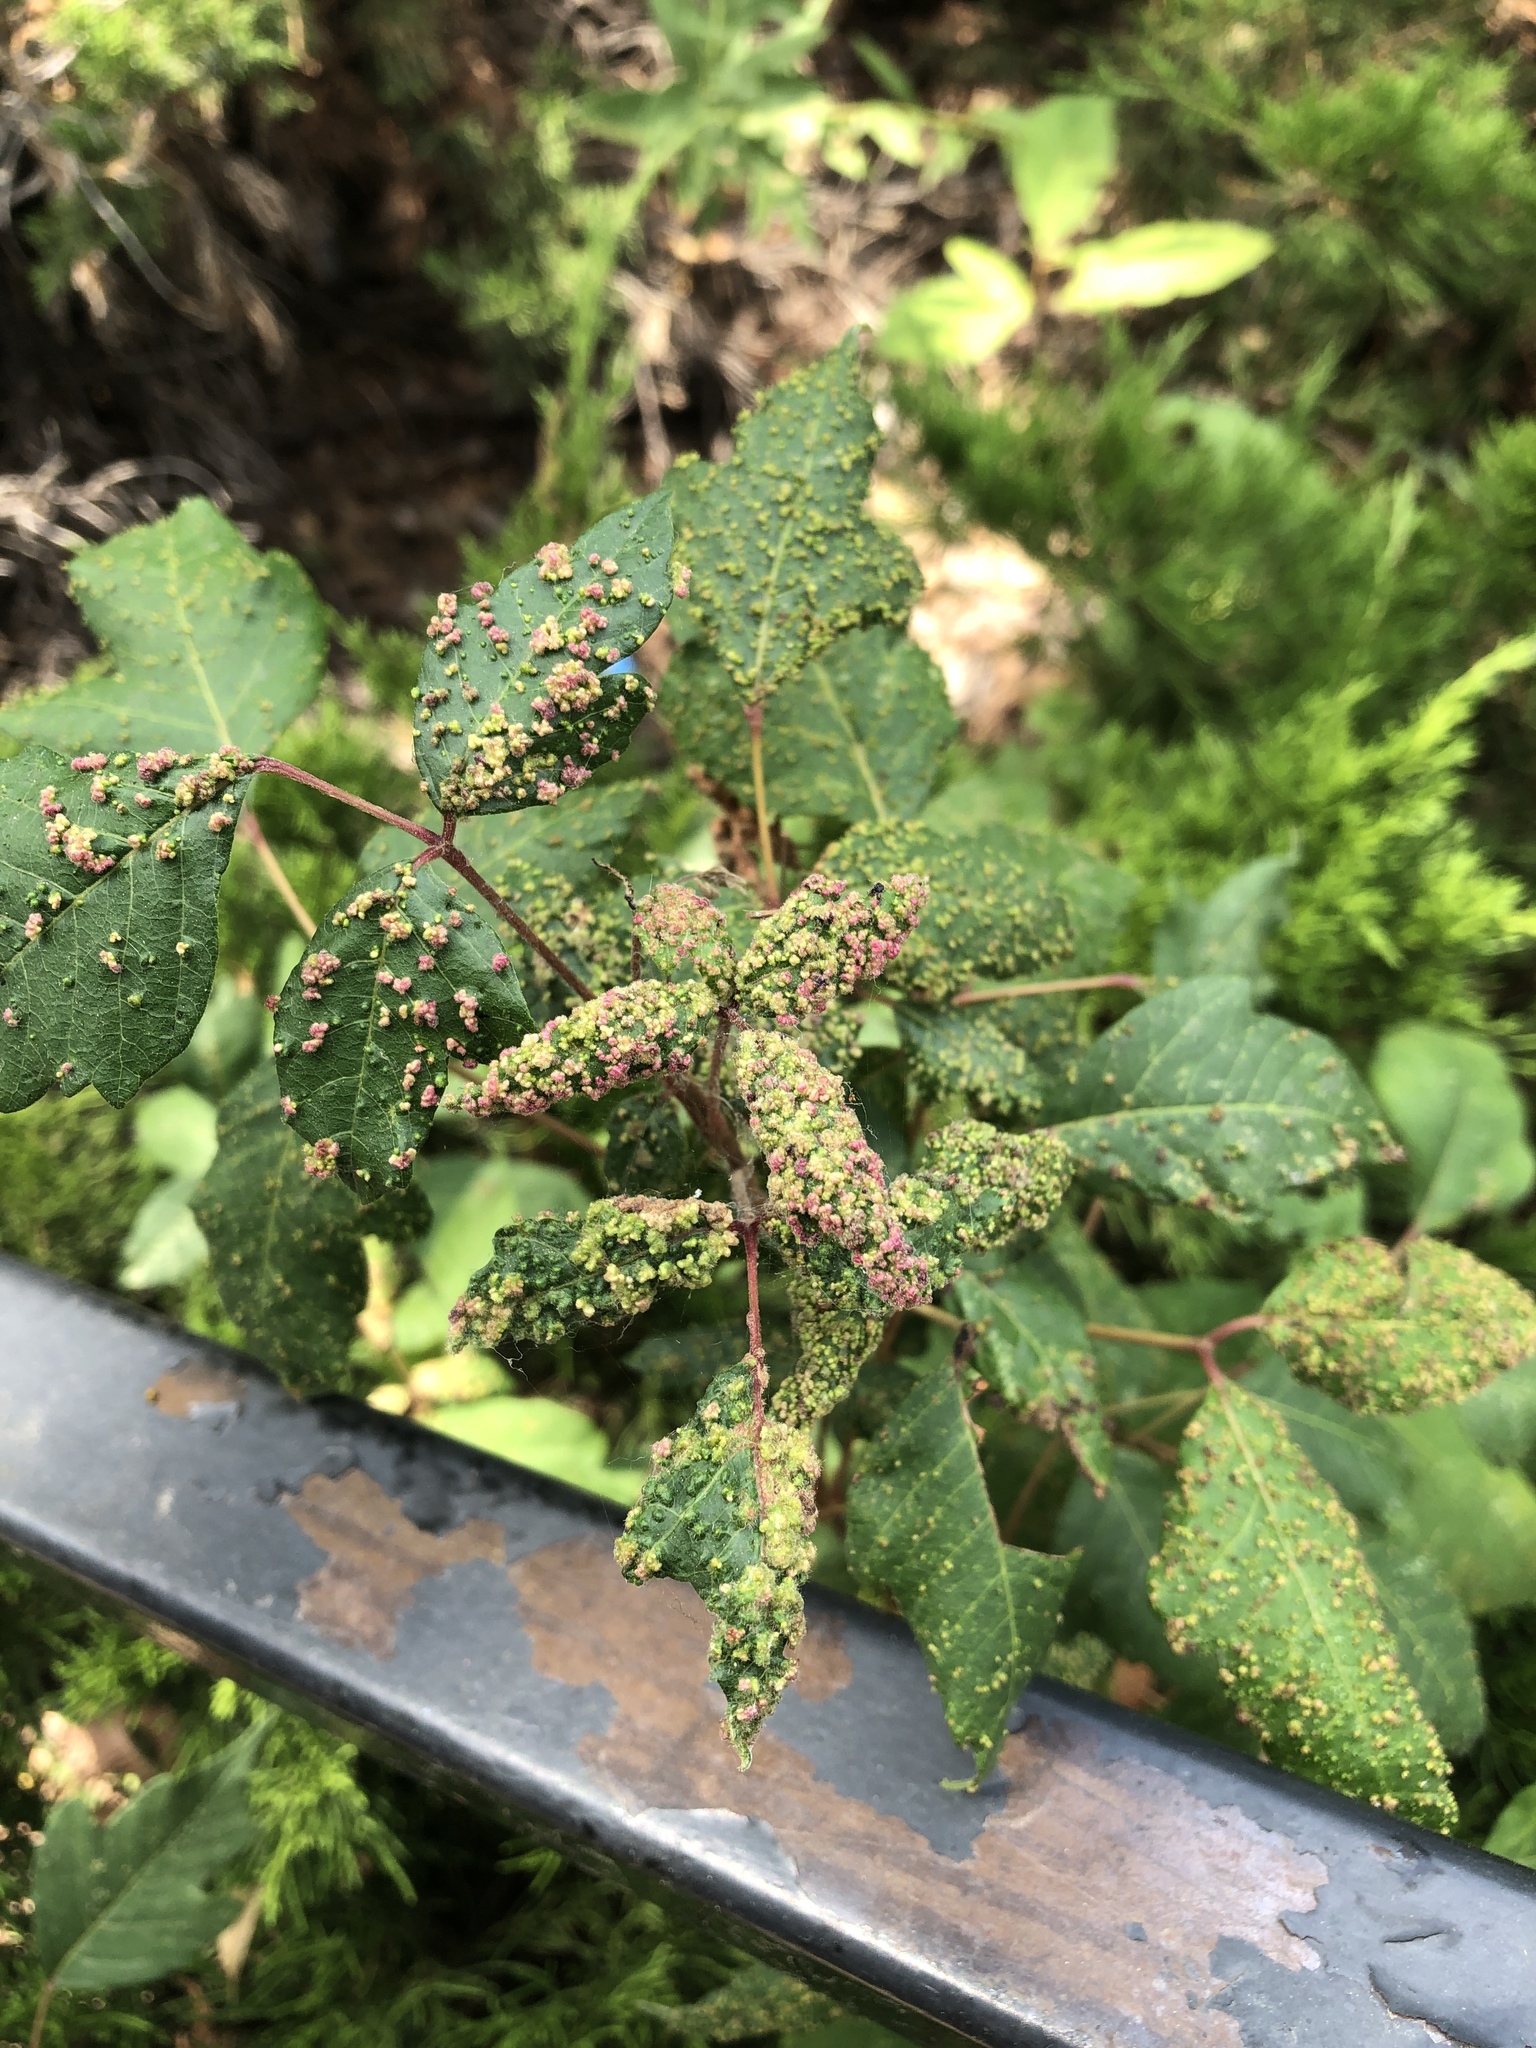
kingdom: Animalia
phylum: Arthropoda
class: Arachnida
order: Trombidiformes
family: Eriophyidae
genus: Aculops
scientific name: Aculops
